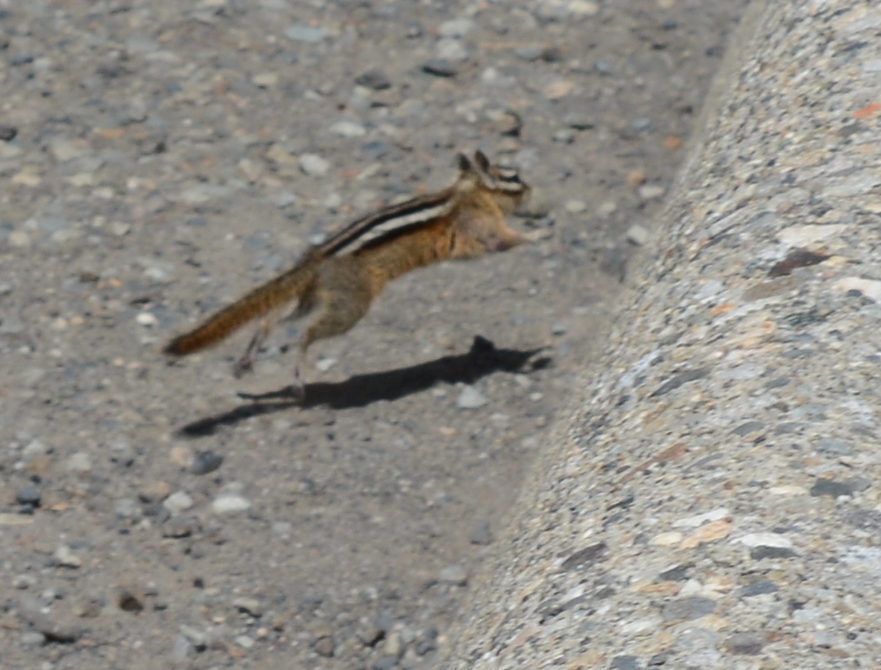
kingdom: Animalia
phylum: Chordata
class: Mammalia
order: Rodentia
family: Sciuridae
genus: Tamias
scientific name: Tamias amoenus
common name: Yellow-pine chipmunk
